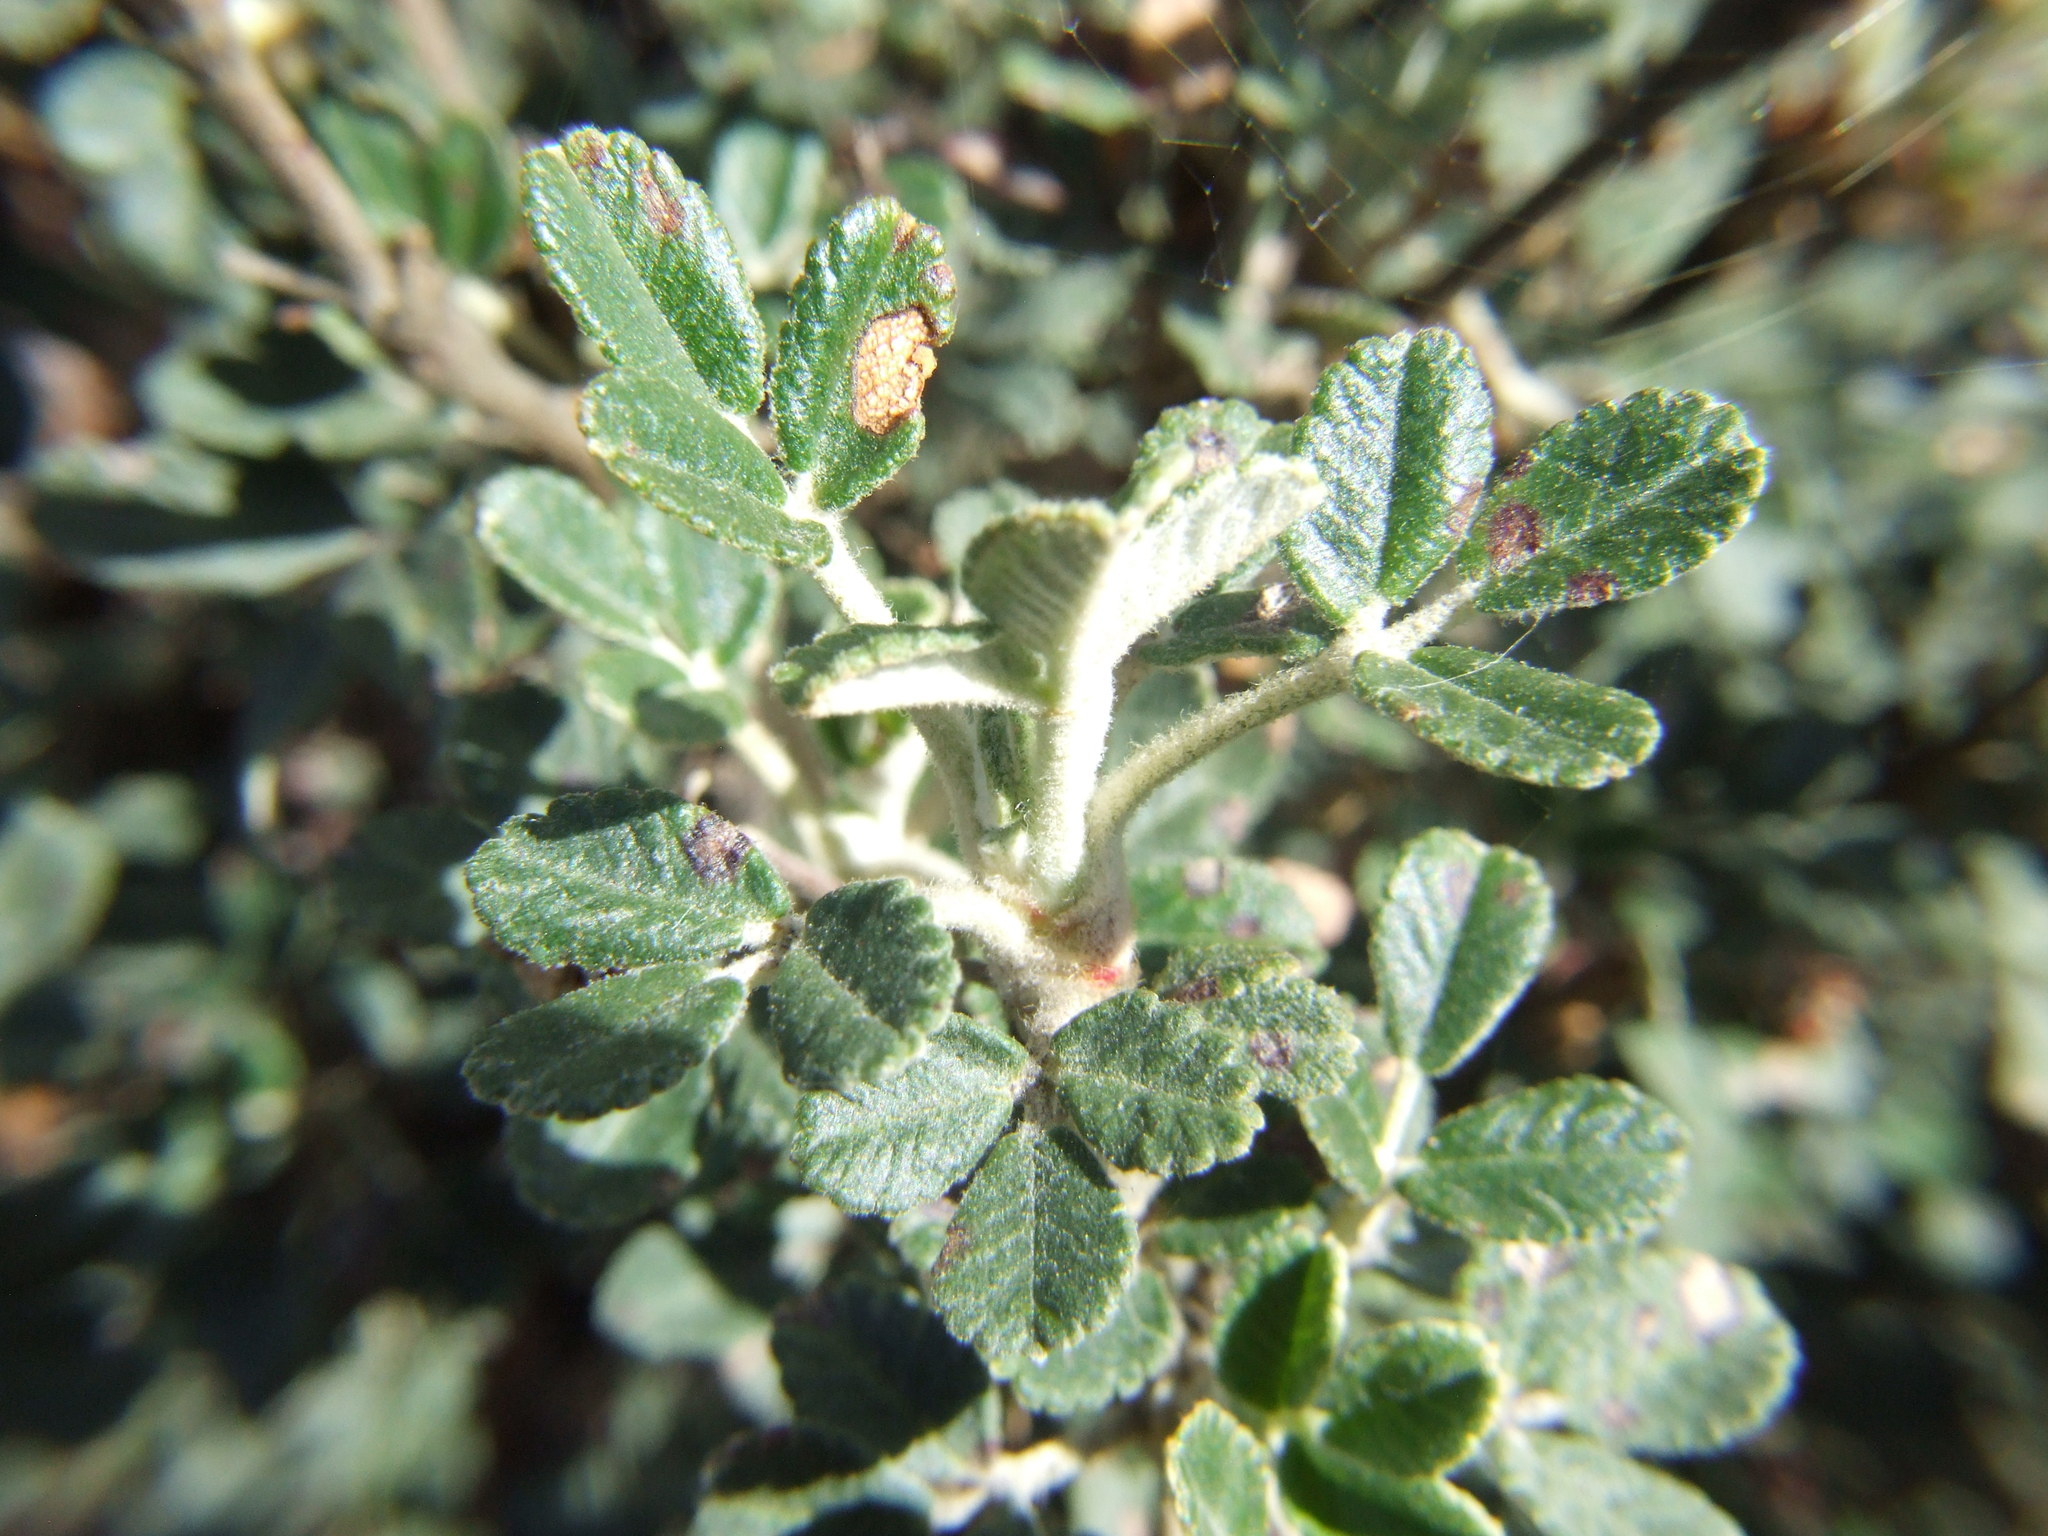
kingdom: Plantae
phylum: Tracheophyta
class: Magnoliopsida
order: Rosales
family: Rosaceae
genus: Polylepis
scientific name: Polylepis rugulosa
